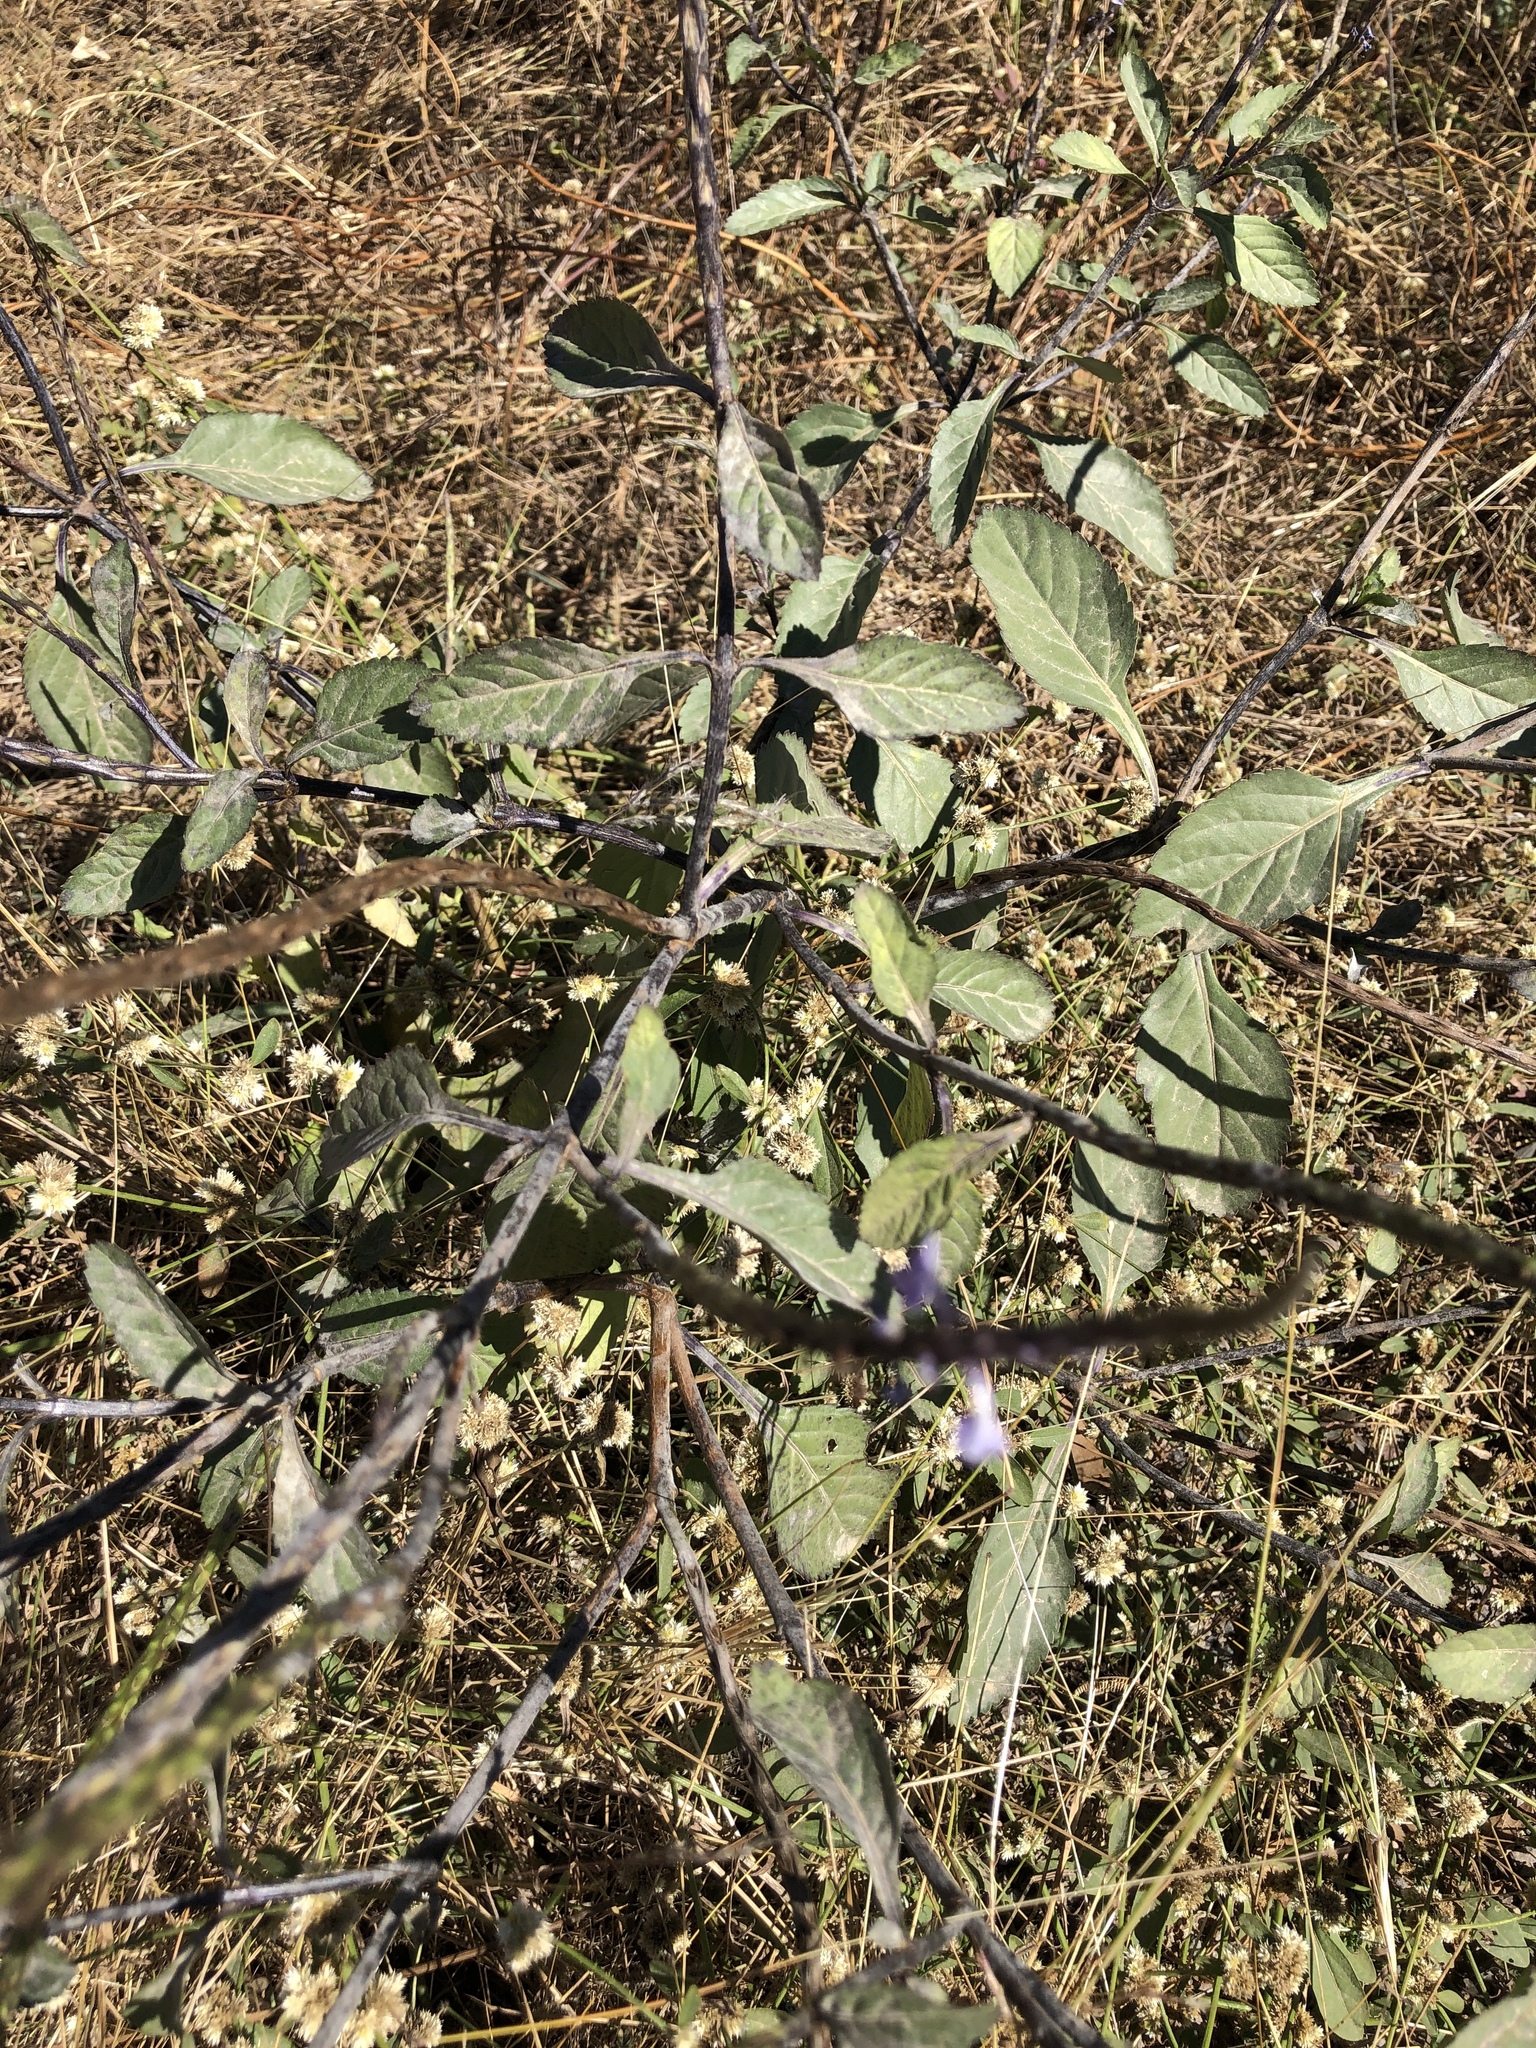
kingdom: Plantae
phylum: Tracheophyta
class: Magnoliopsida
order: Lamiales
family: Verbenaceae
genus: Stachytarpheta
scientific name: Stachytarpheta jamaicensis
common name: Light-blue snakeweed
